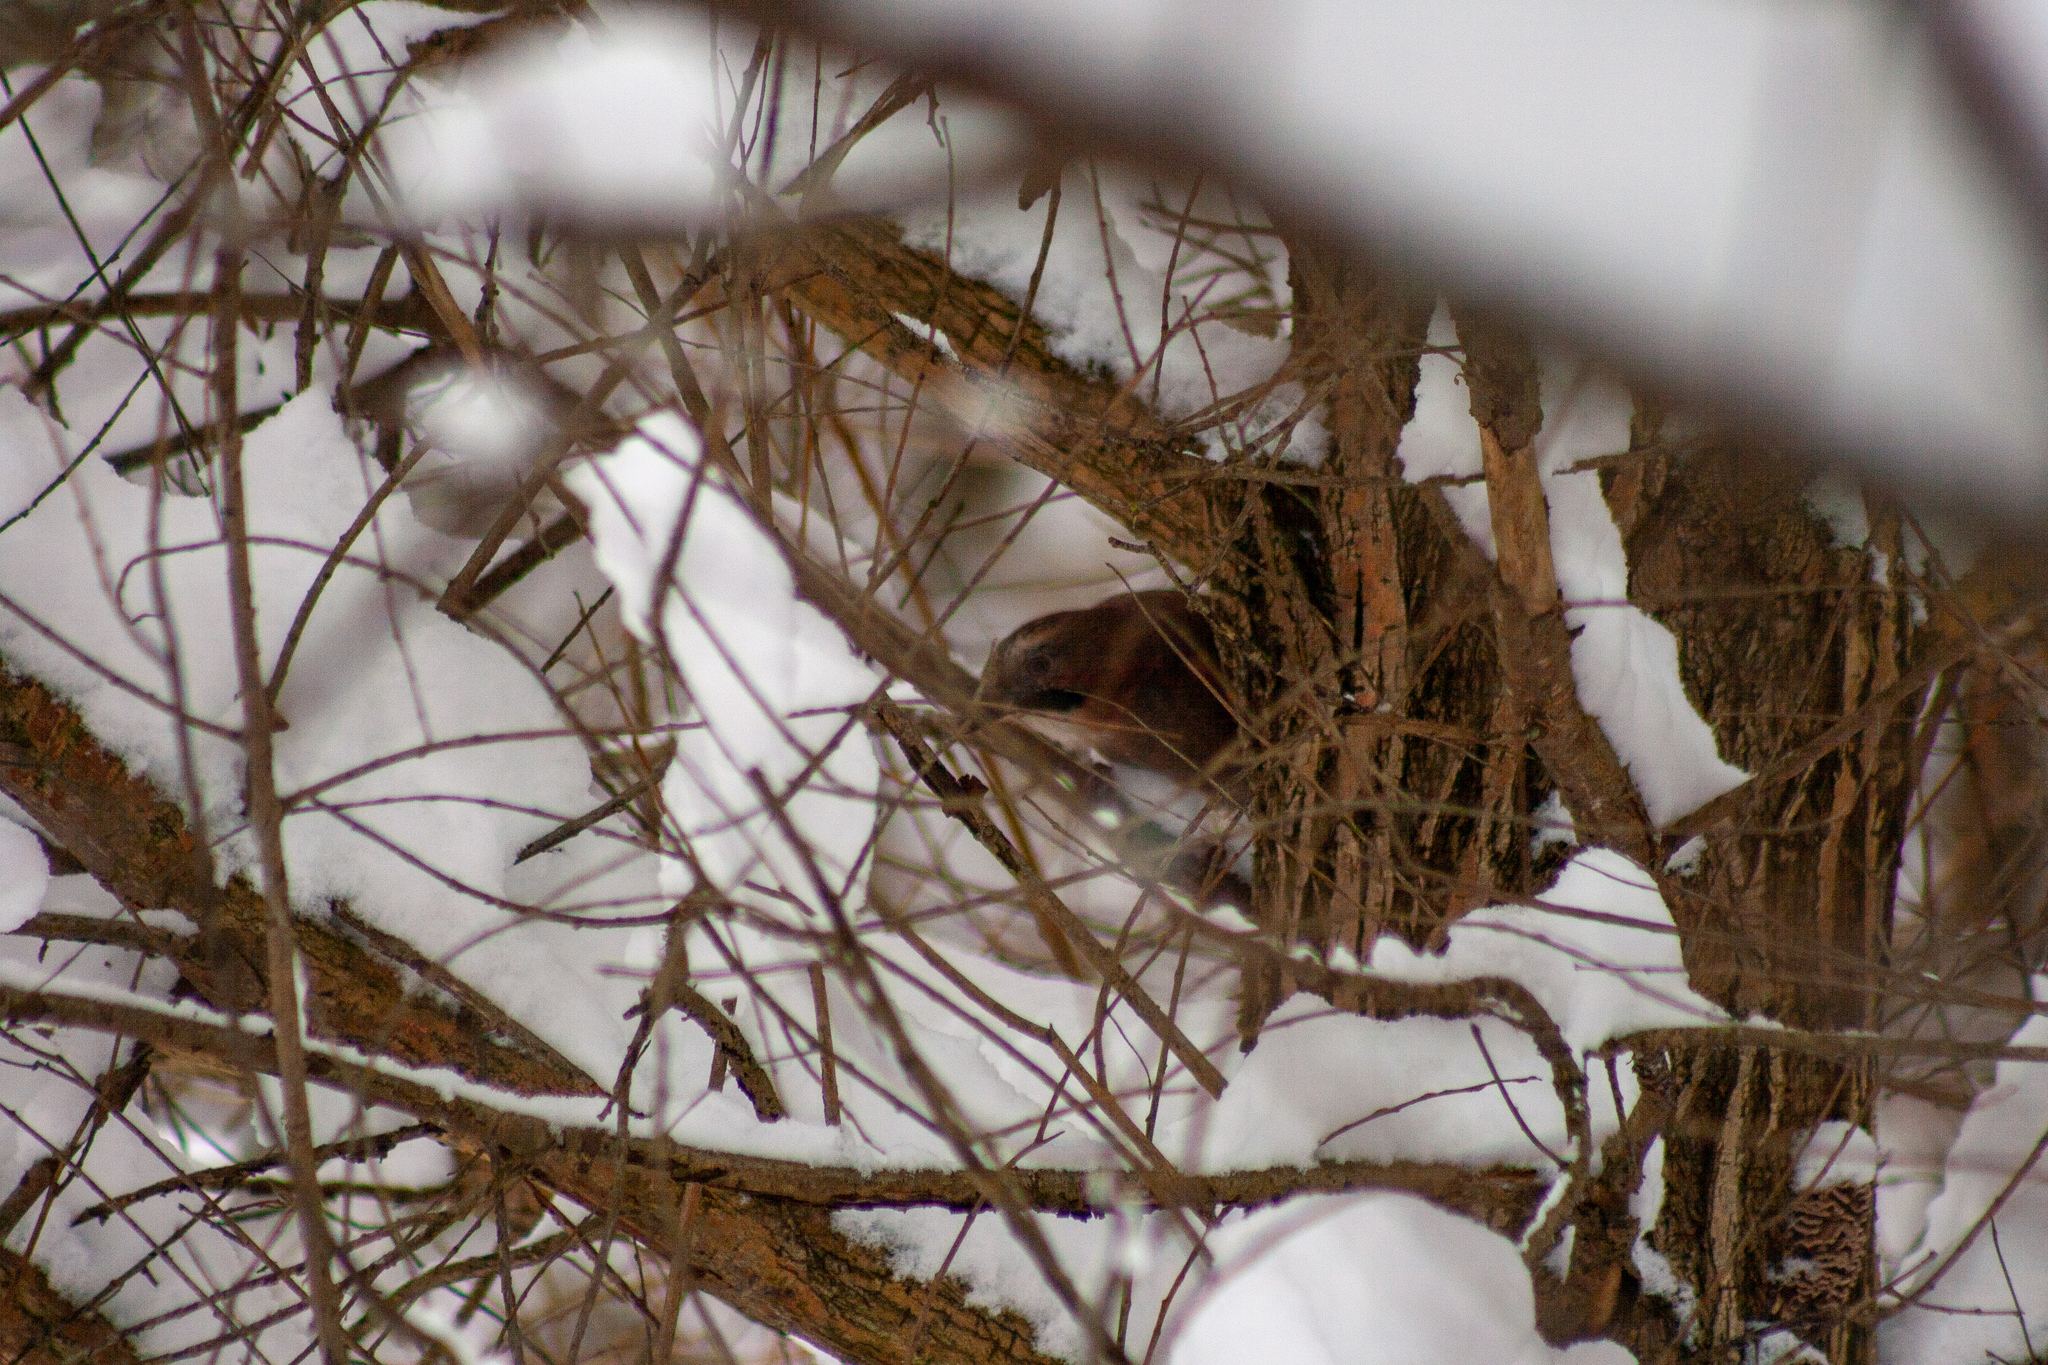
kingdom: Animalia
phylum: Chordata
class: Aves
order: Passeriformes
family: Corvidae
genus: Garrulus
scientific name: Garrulus glandarius
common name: Eurasian jay
